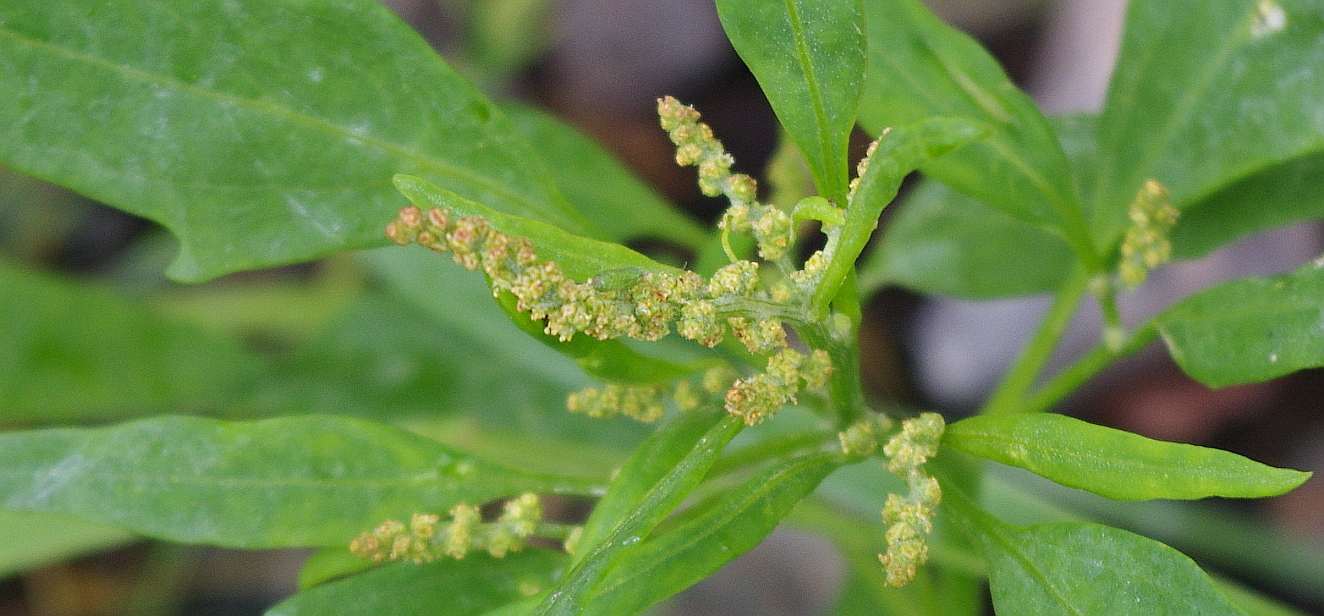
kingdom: Plantae
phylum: Tracheophyta
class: Magnoliopsida
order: Caryophyllales
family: Amaranthaceae
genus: Atriplex
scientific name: Atriplex nudicaulis
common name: Baltic orache
